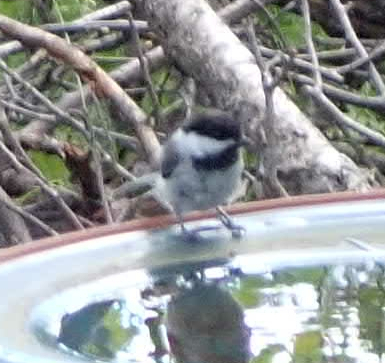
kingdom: Animalia
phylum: Chordata
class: Aves
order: Passeriformes
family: Paridae
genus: Poecile
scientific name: Poecile atricapillus
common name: Black-capped chickadee
